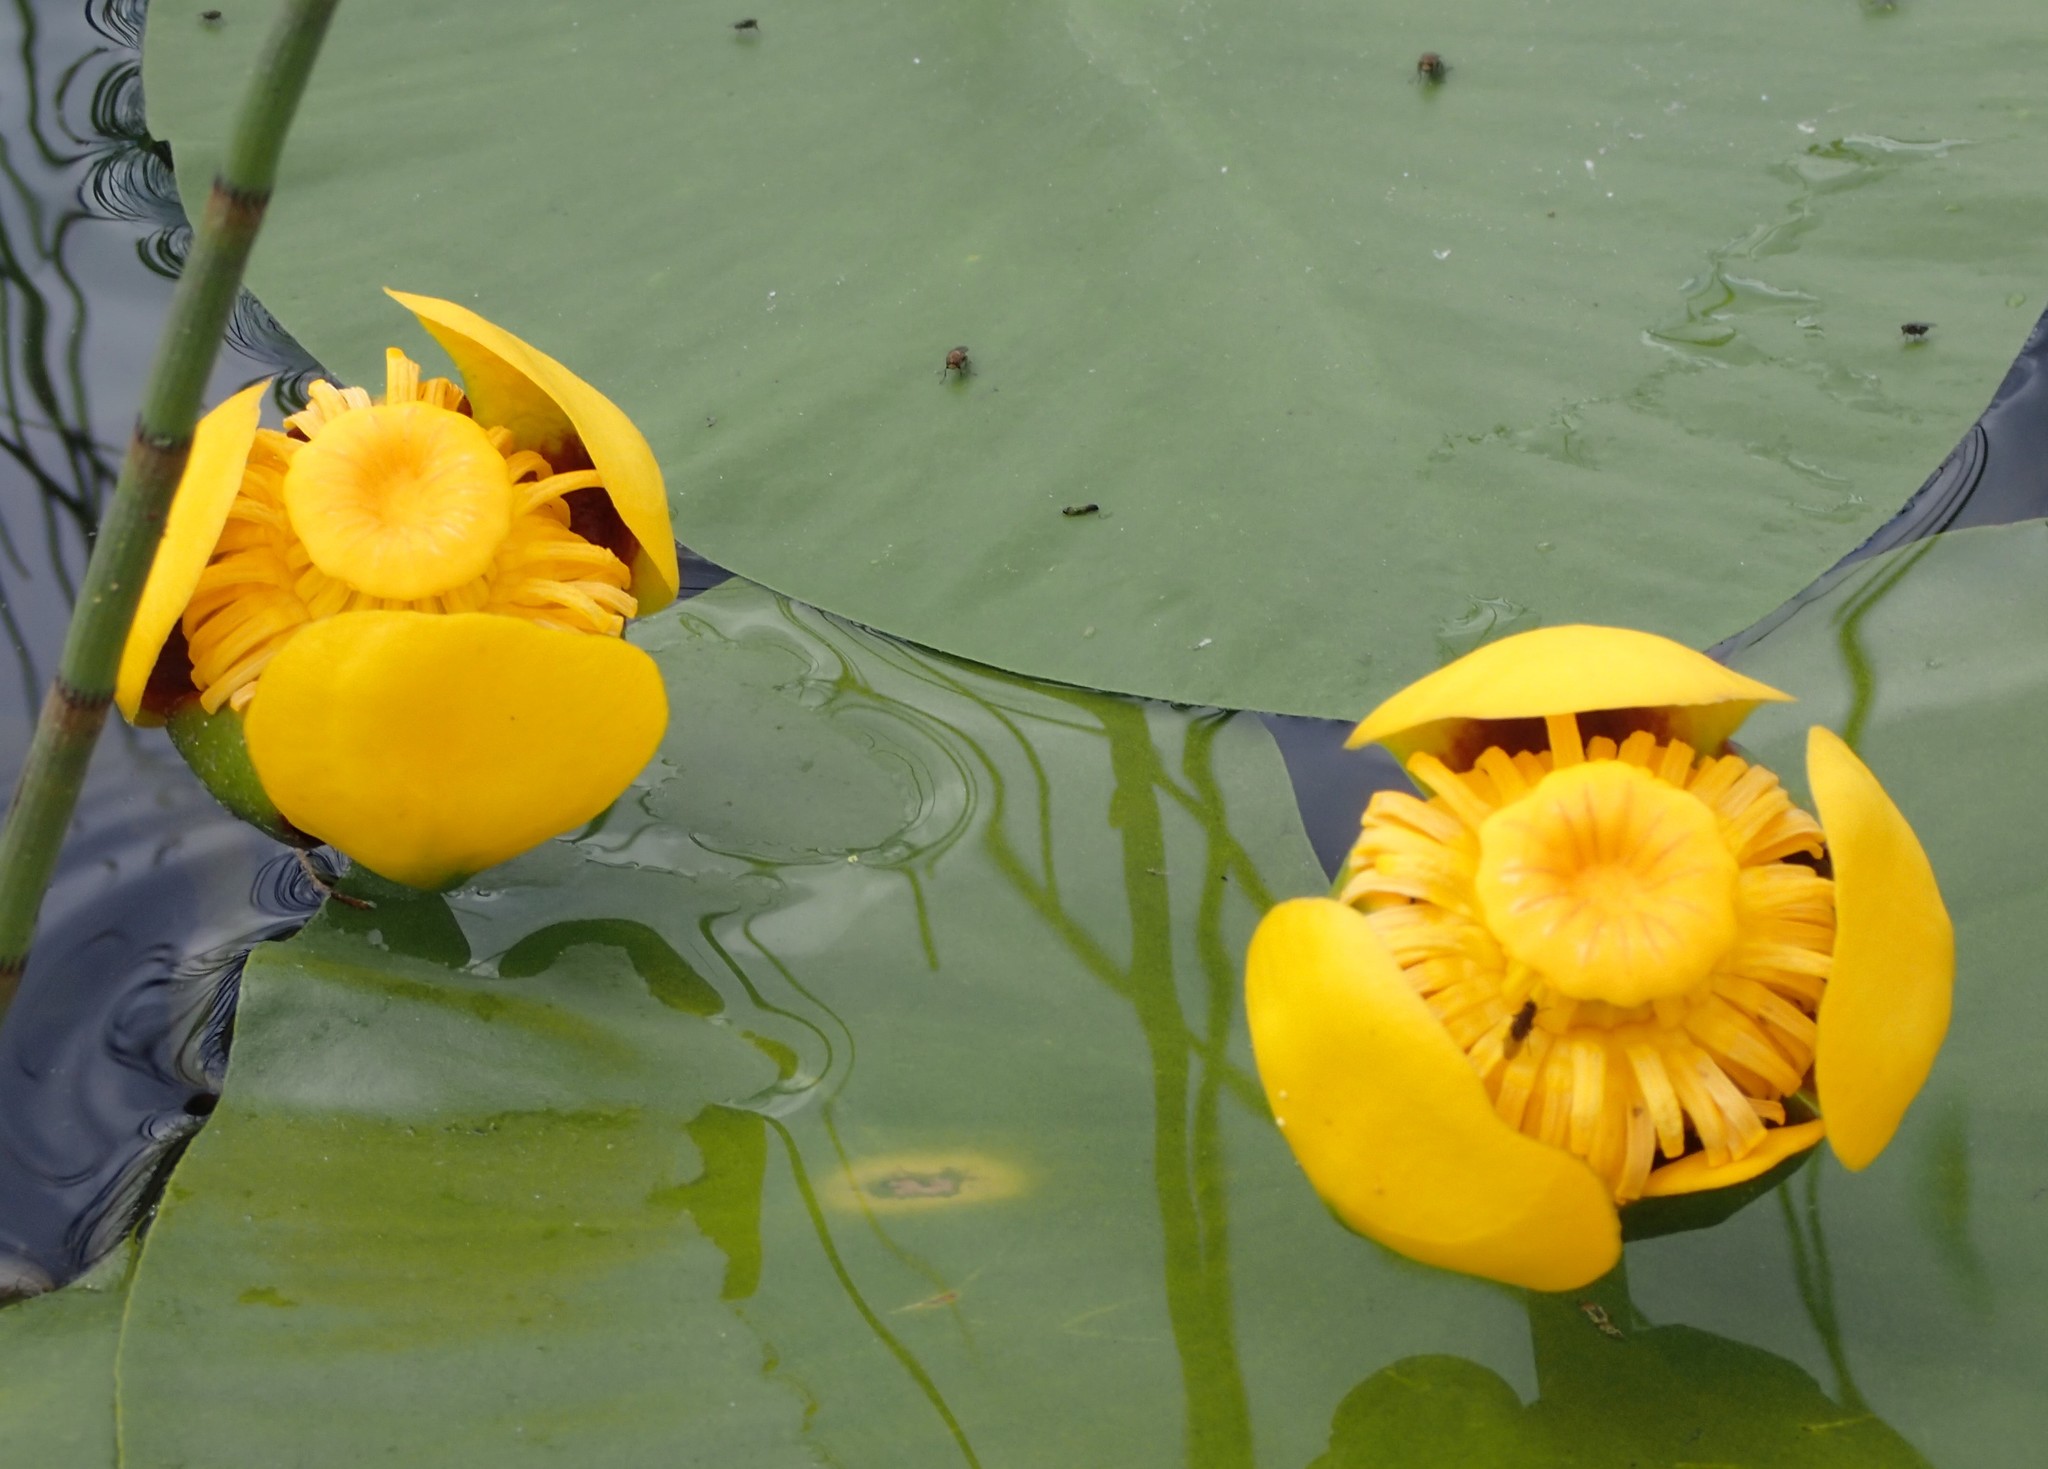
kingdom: Plantae
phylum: Tracheophyta
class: Magnoliopsida
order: Nymphaeales
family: Nymphaeaceae
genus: Nuphar
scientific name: Nuphar variegata
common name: Beaver-root
